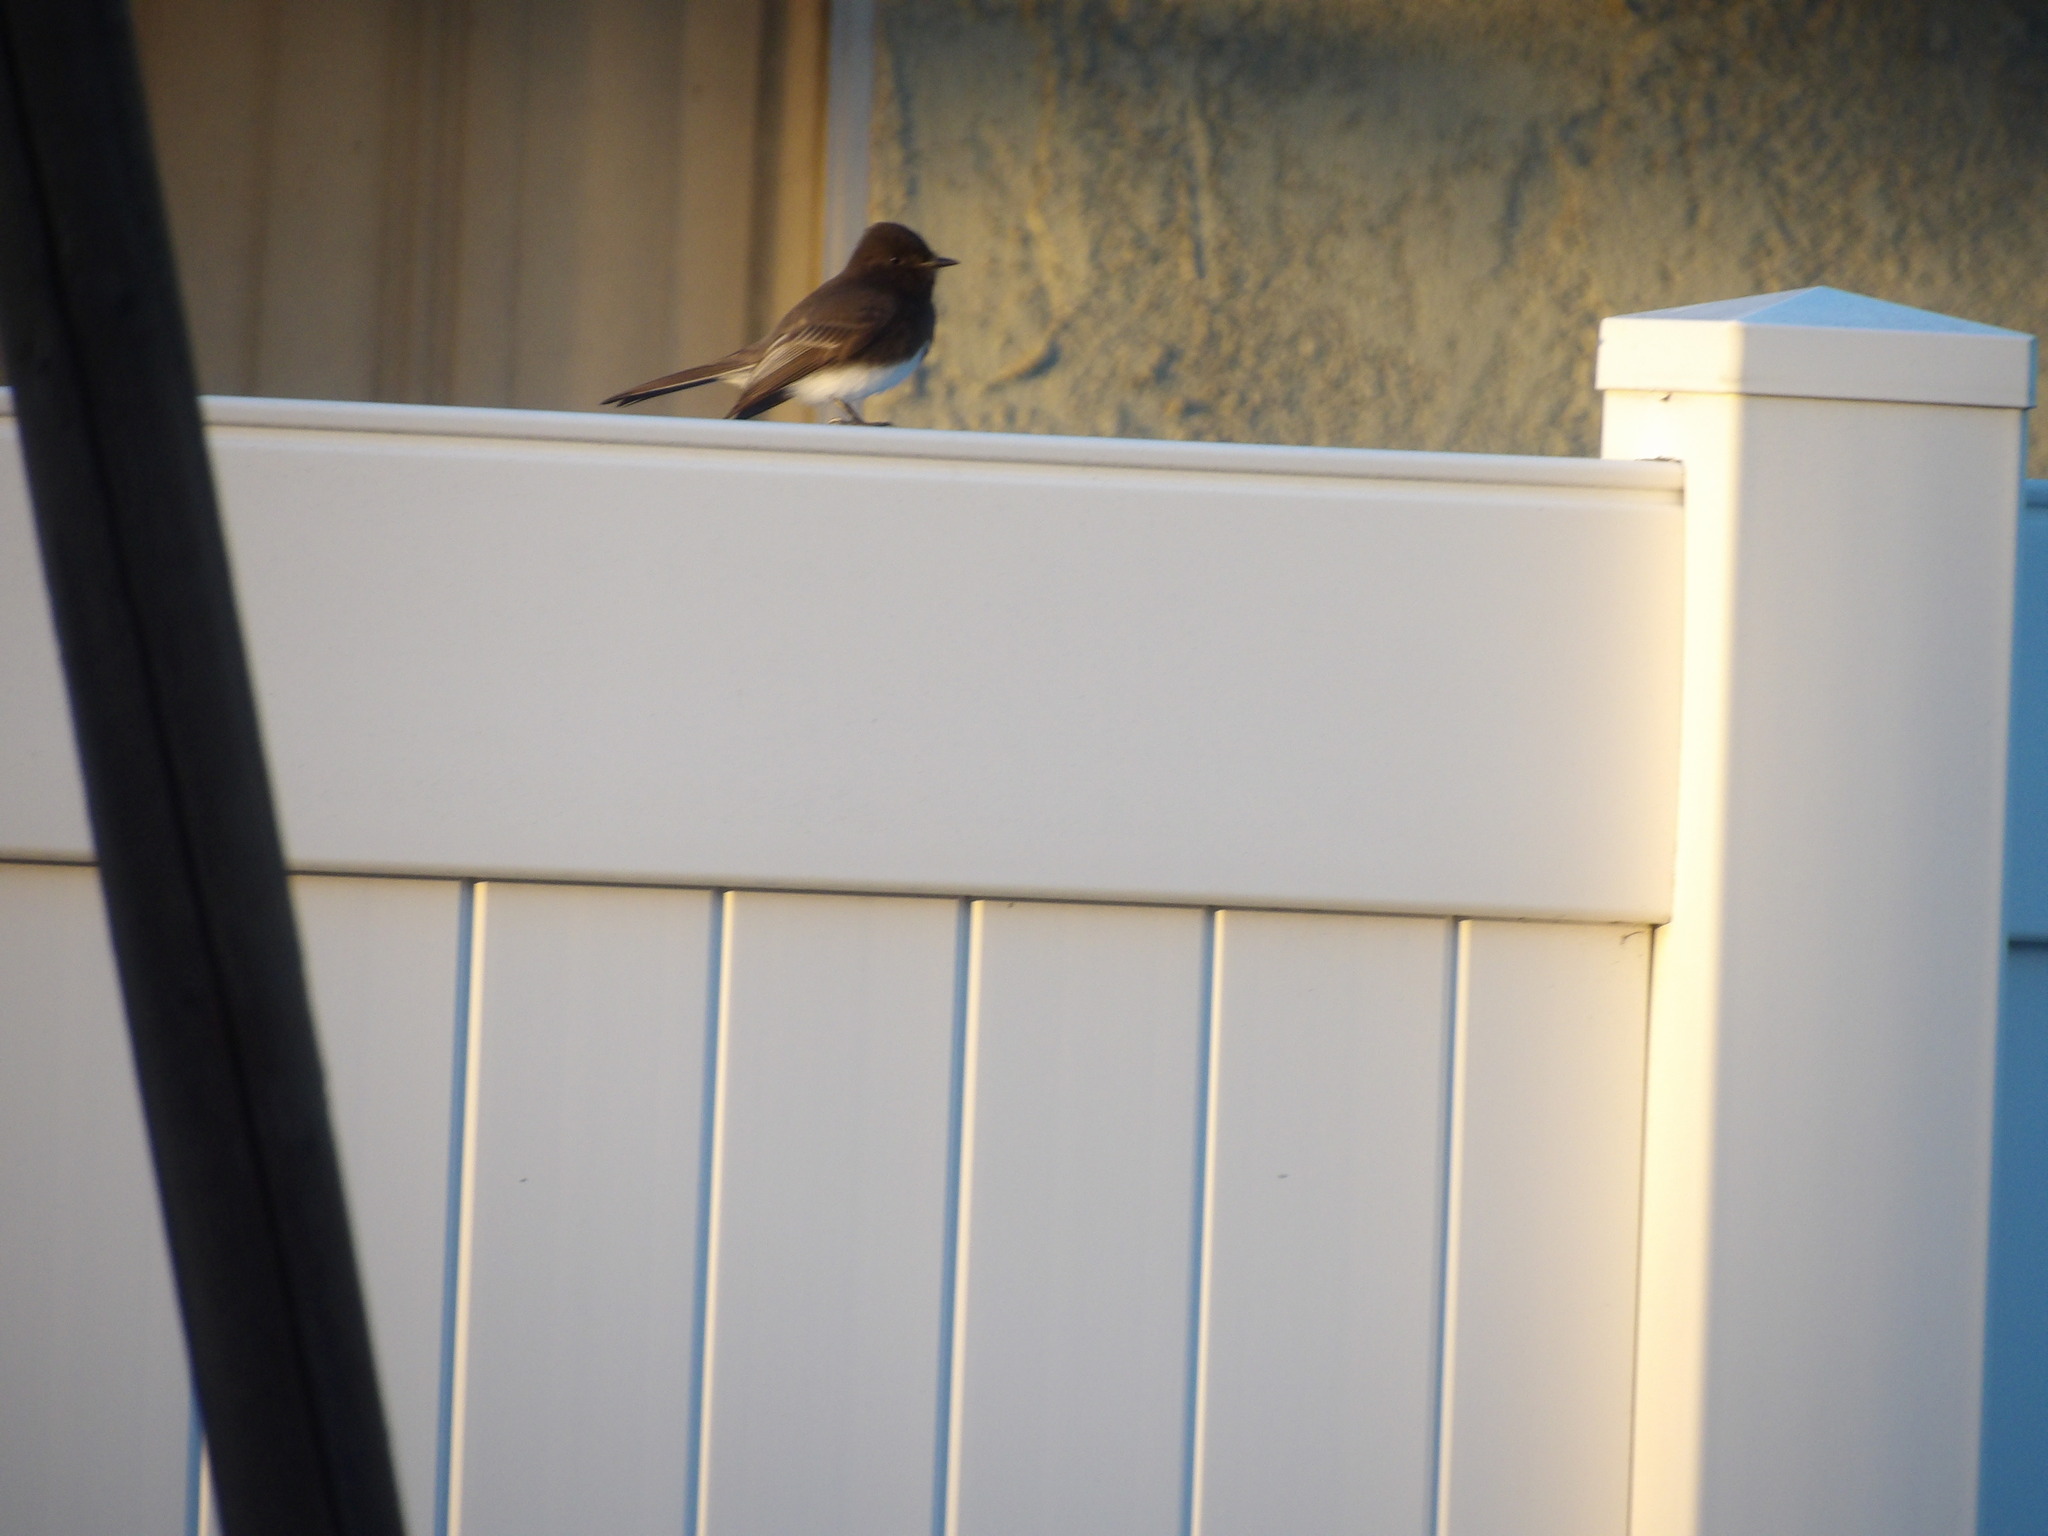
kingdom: Animalia
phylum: Chordata
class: Aves
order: Passeriformes
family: Tyrannidae
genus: Sayornis
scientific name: Sayornis nigricans
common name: Black phoebe
